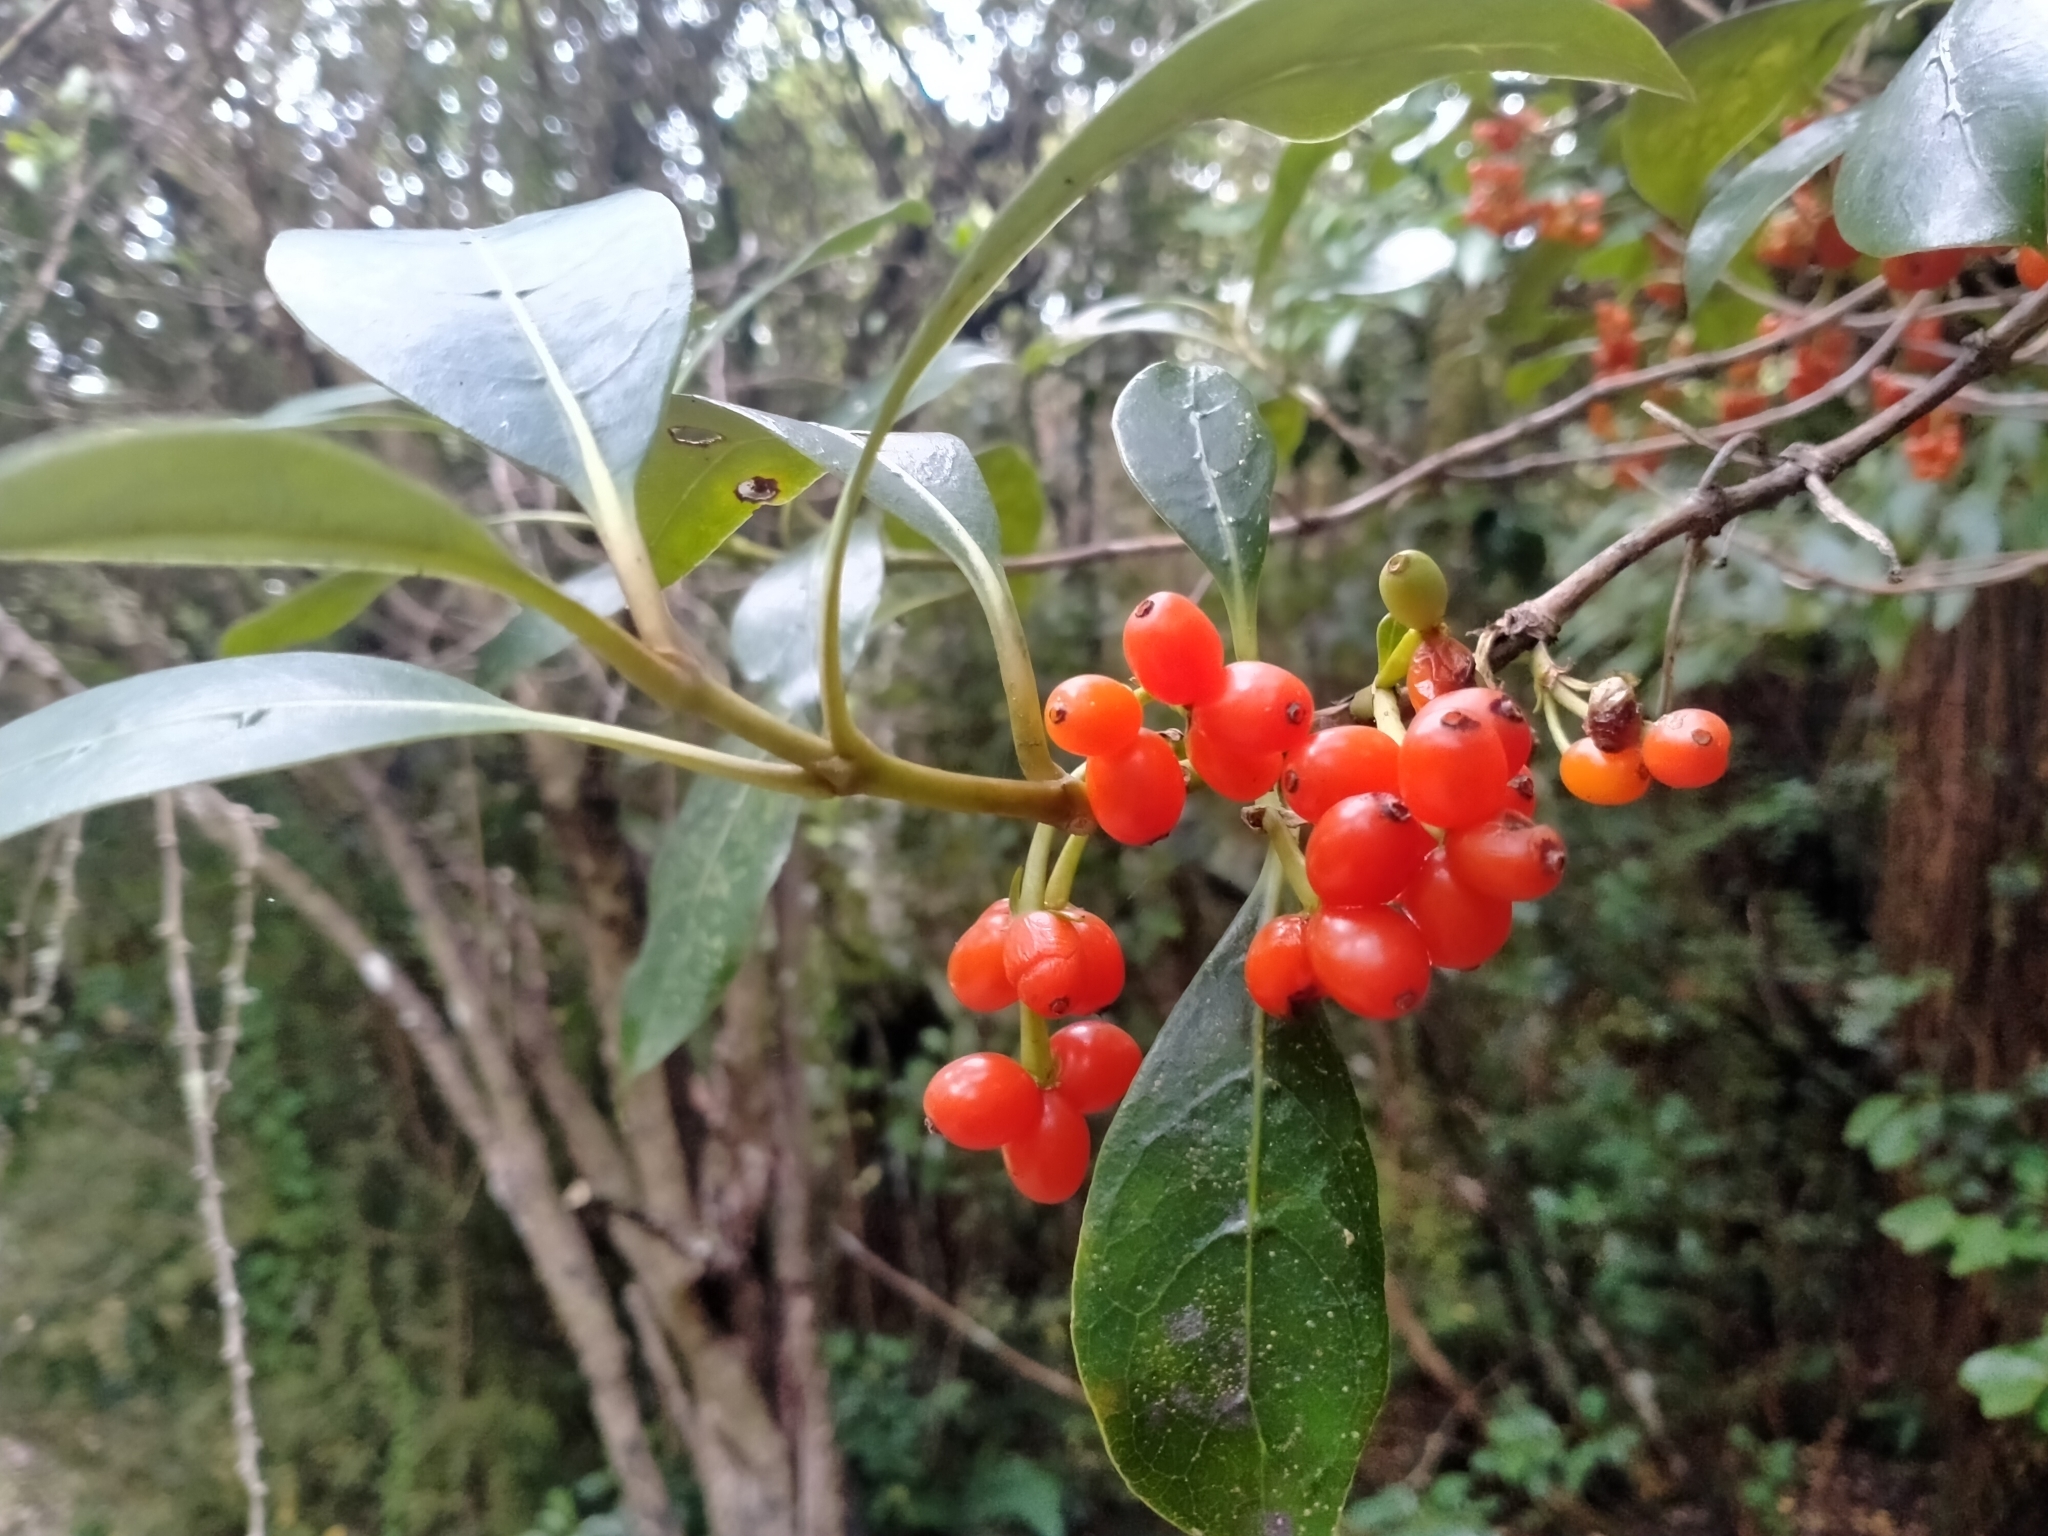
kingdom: Plantae
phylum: Tracheophyta
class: Magnoliopsida
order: Gentianales
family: Rubiaceae
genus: Coprosma
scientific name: Coprosma lucida
